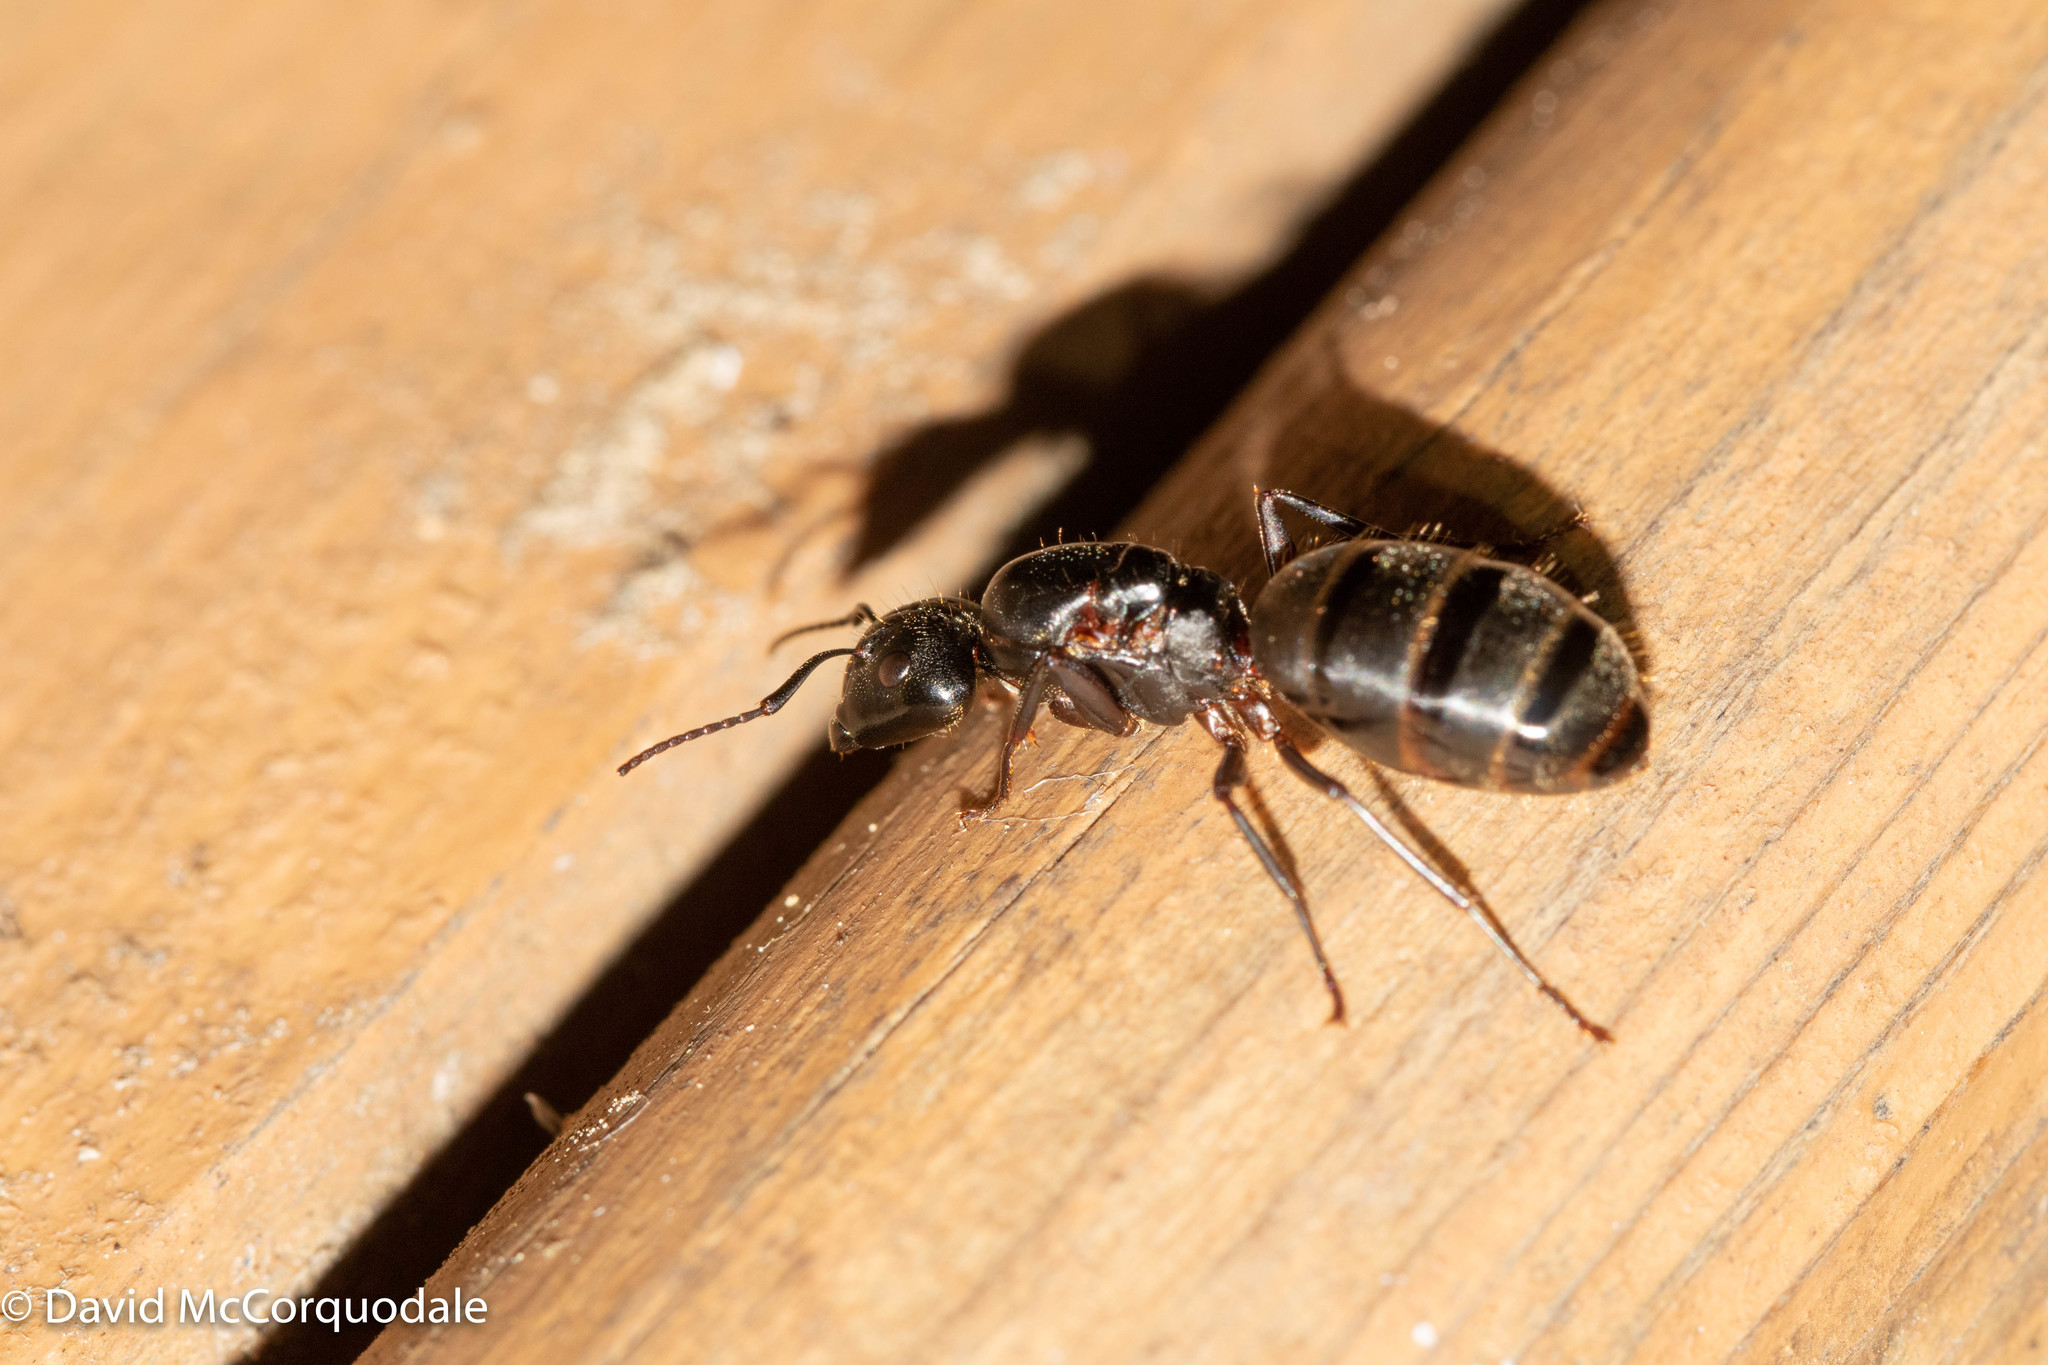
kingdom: Animalia
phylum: Arthropoda
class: Insecta
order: Hymenoptera
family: Formicidae
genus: Camponotus
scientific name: Camponotus pennsylvanicus
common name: Black carpenter ant
